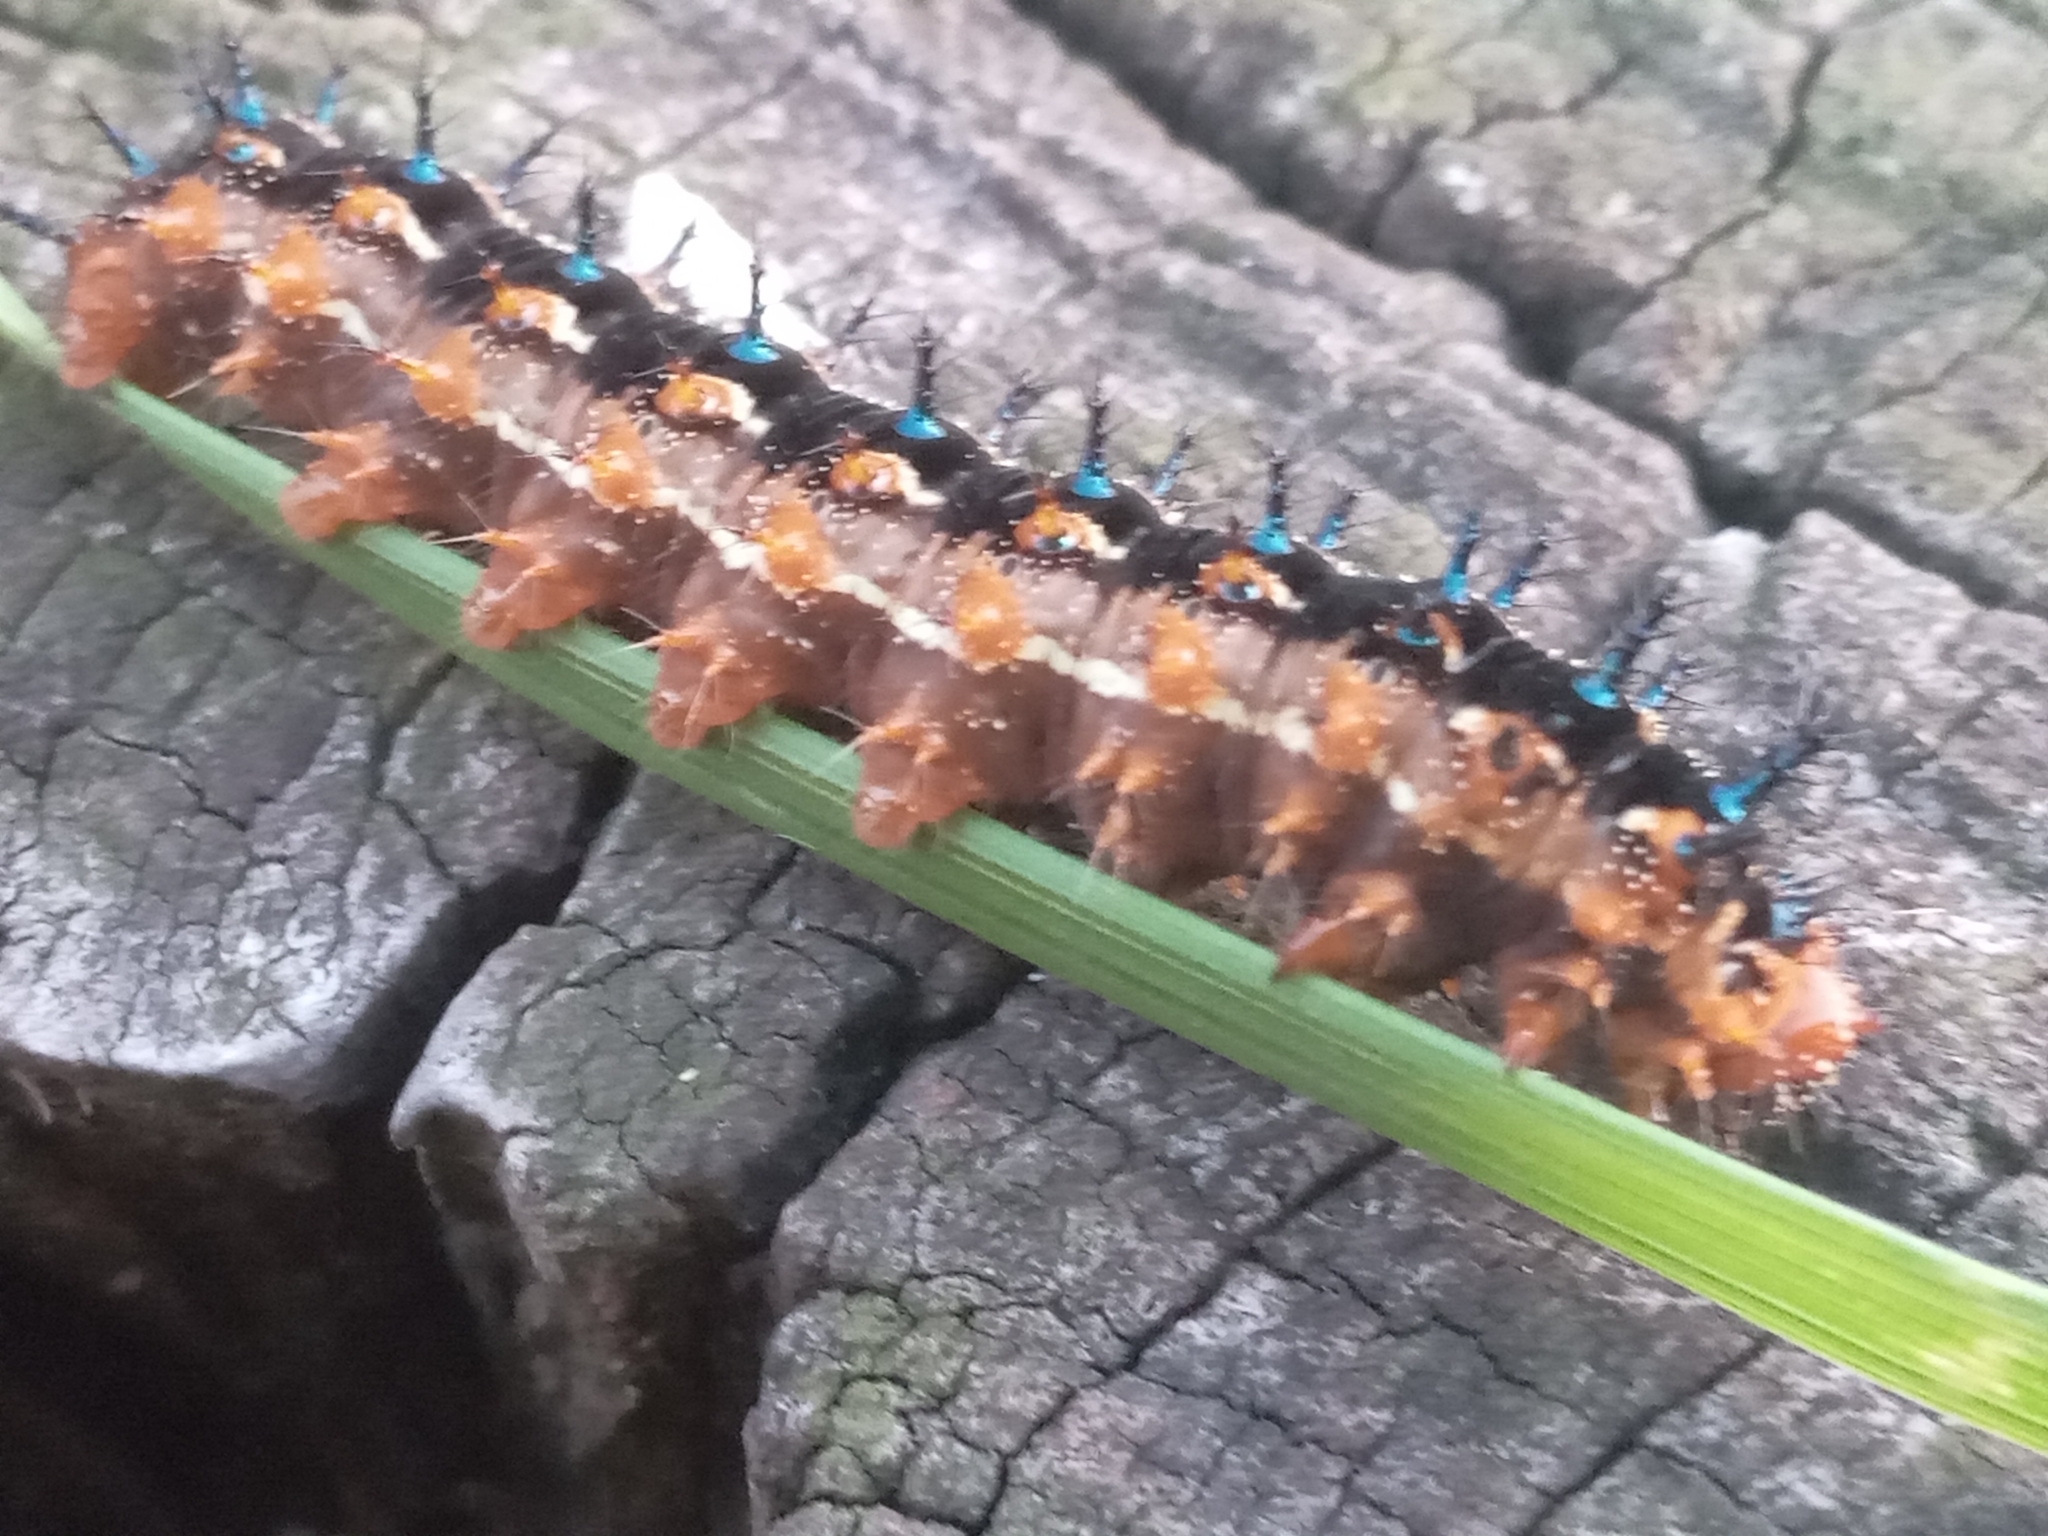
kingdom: Animalia
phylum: Arthropoda
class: Insecta
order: Lepidoptera
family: Nymphalidae
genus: Junonia
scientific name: Junonia lavinia
